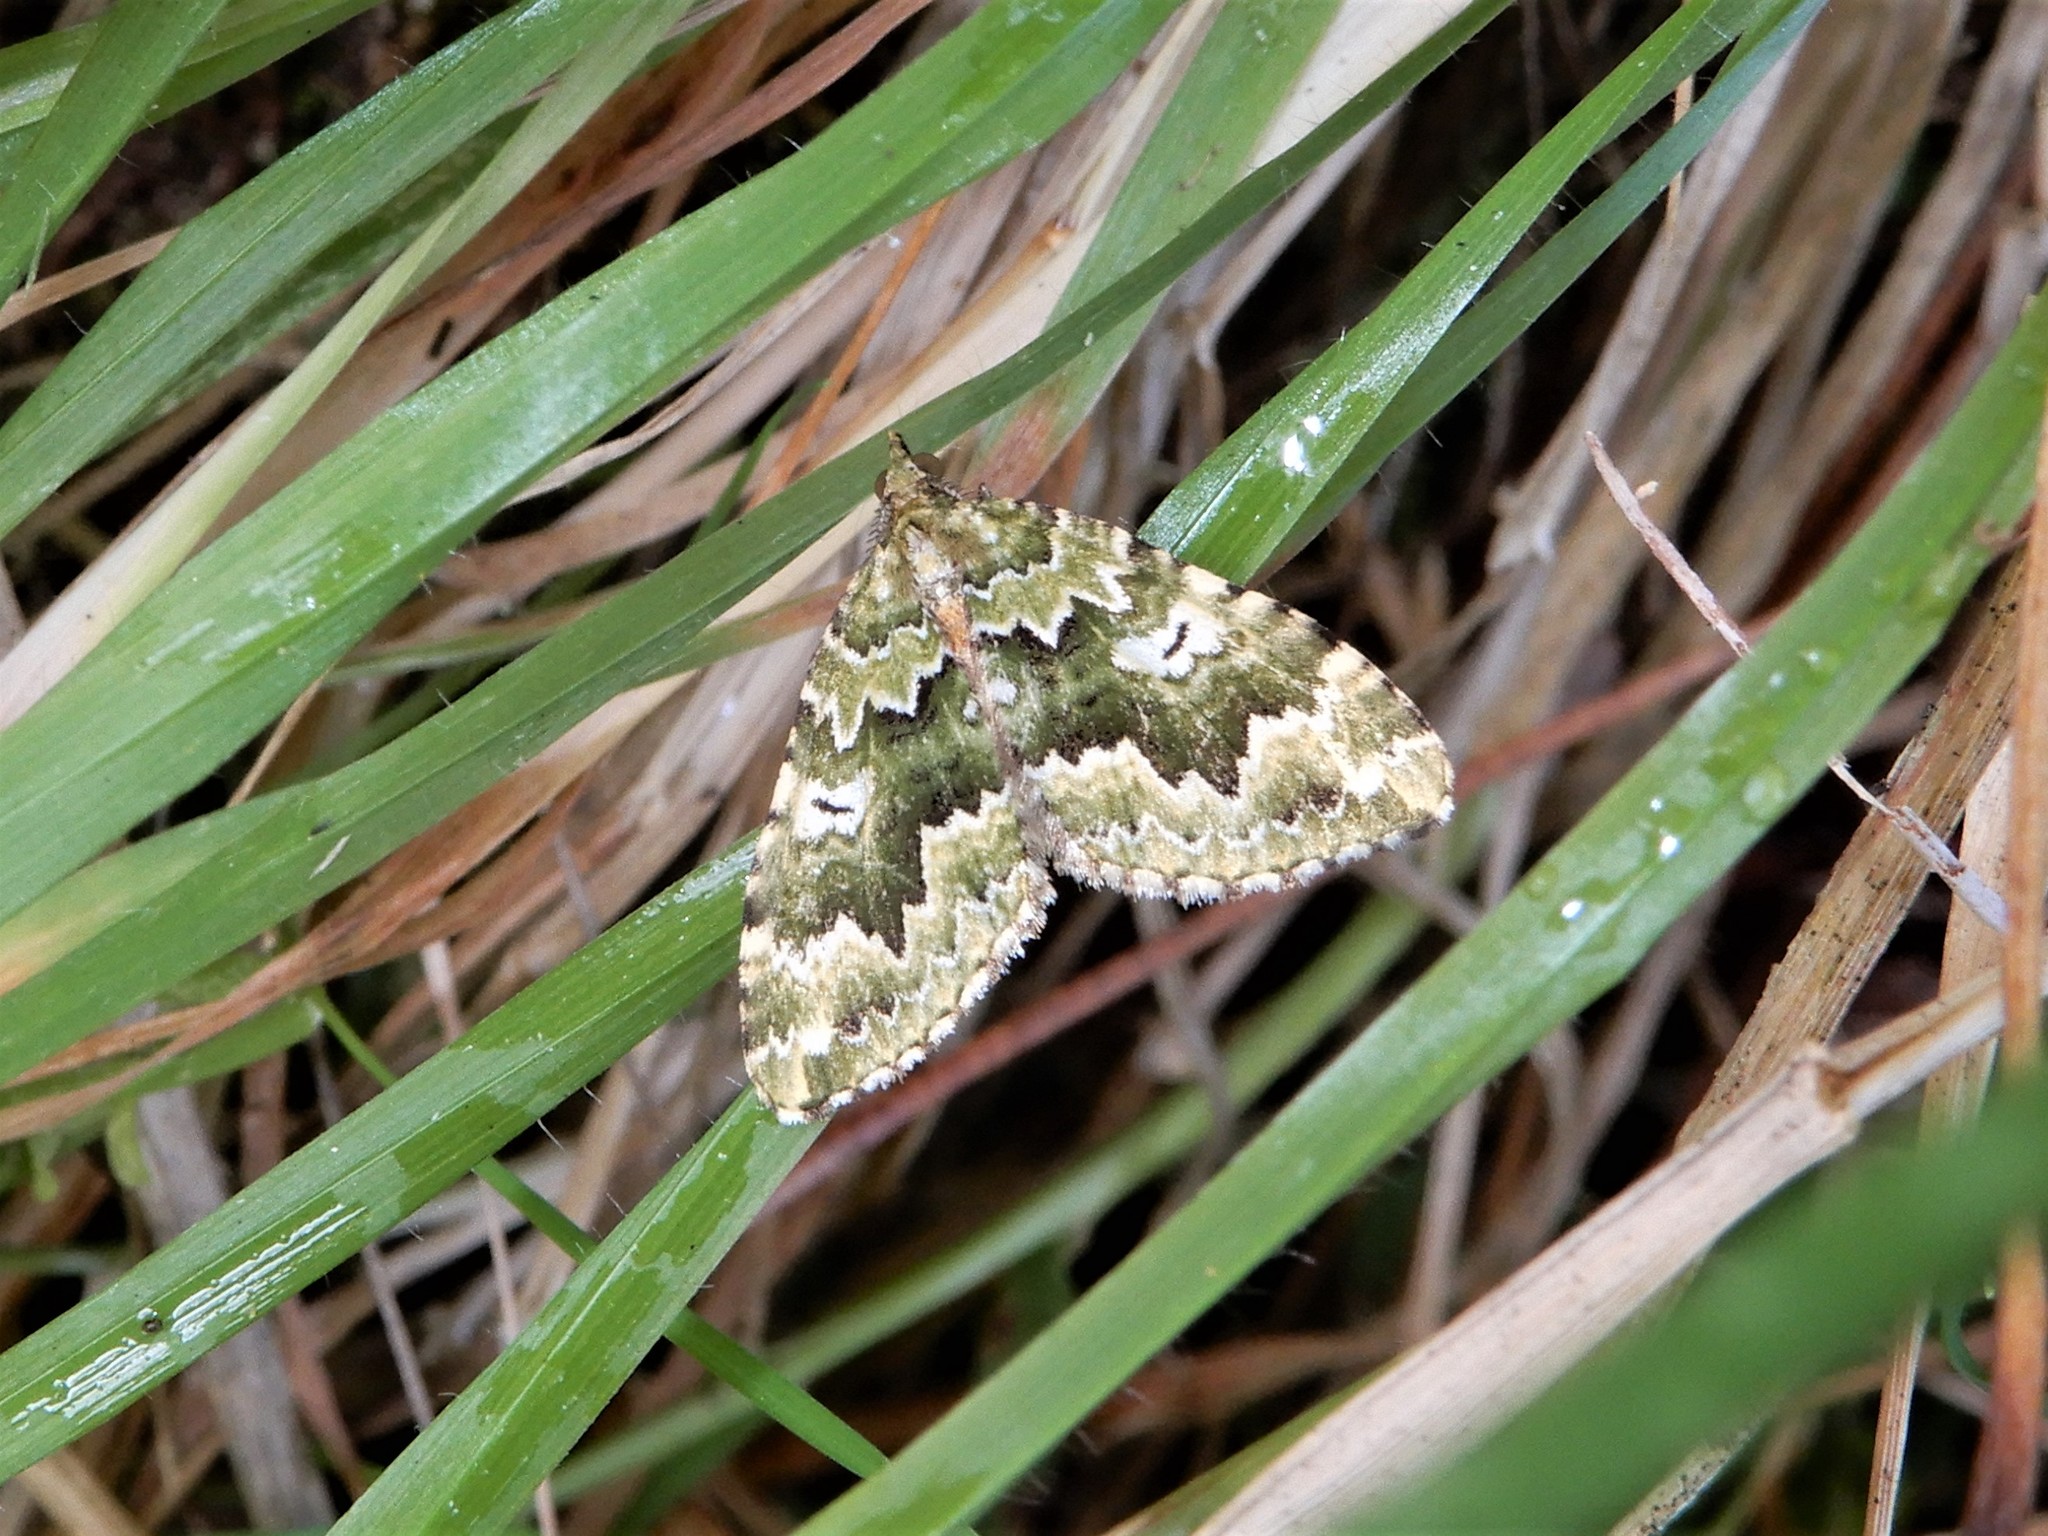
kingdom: Animalia
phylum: Arthropoda
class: Insecta
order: Lepidoptera
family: Geometridae
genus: Asaphodes
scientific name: Asaphodes beata
